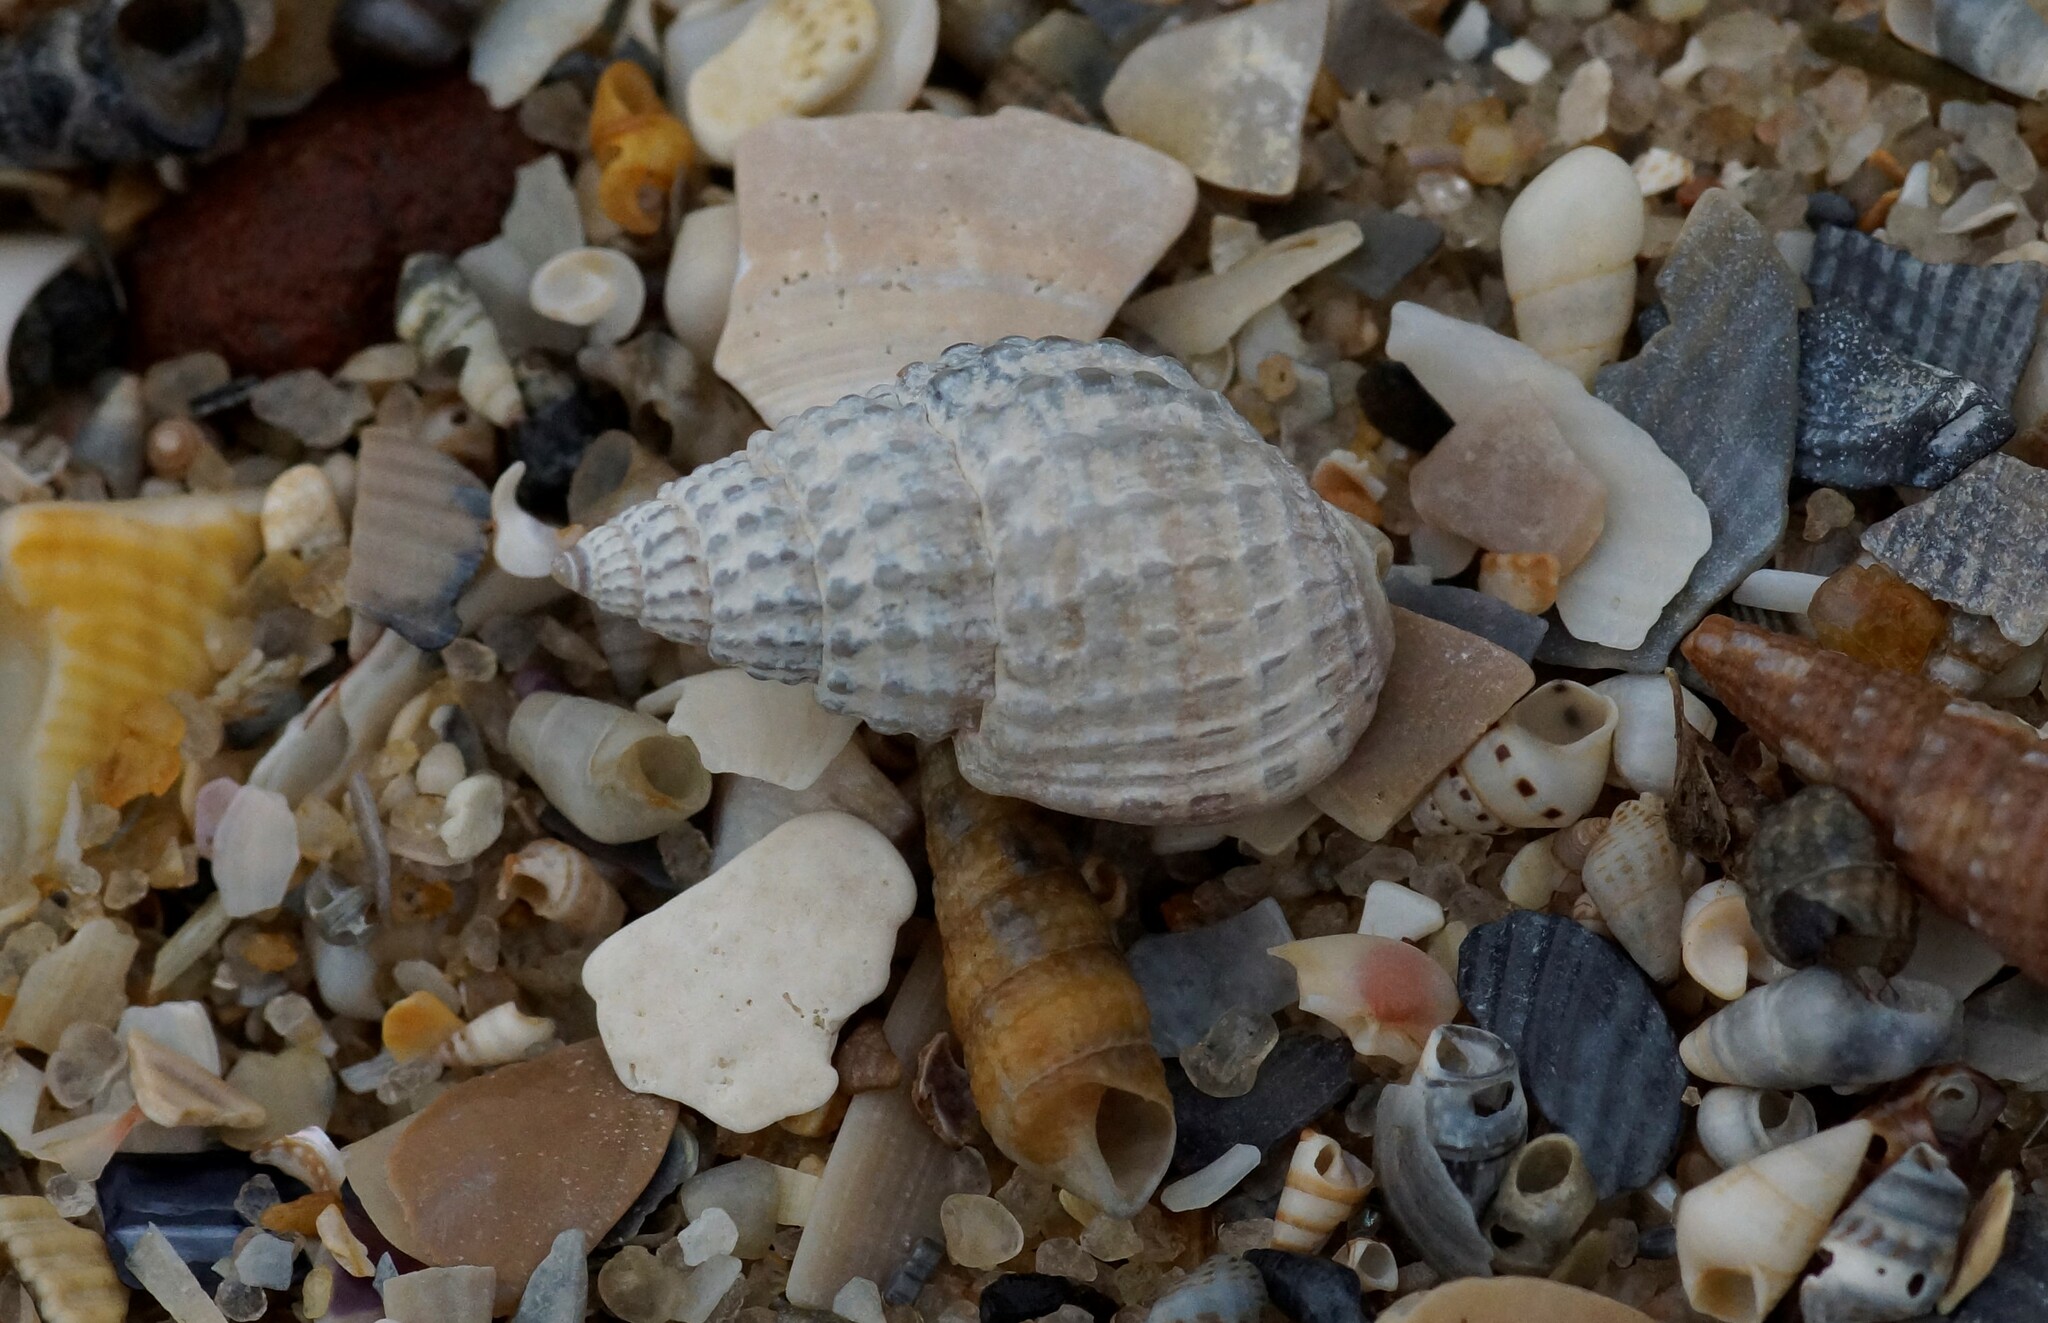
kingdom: Animalia
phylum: Mollusca
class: Gastropoda
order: Neogastropoda
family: Nassariidae
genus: Nassarius
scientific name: Nassarius pyrrhus
